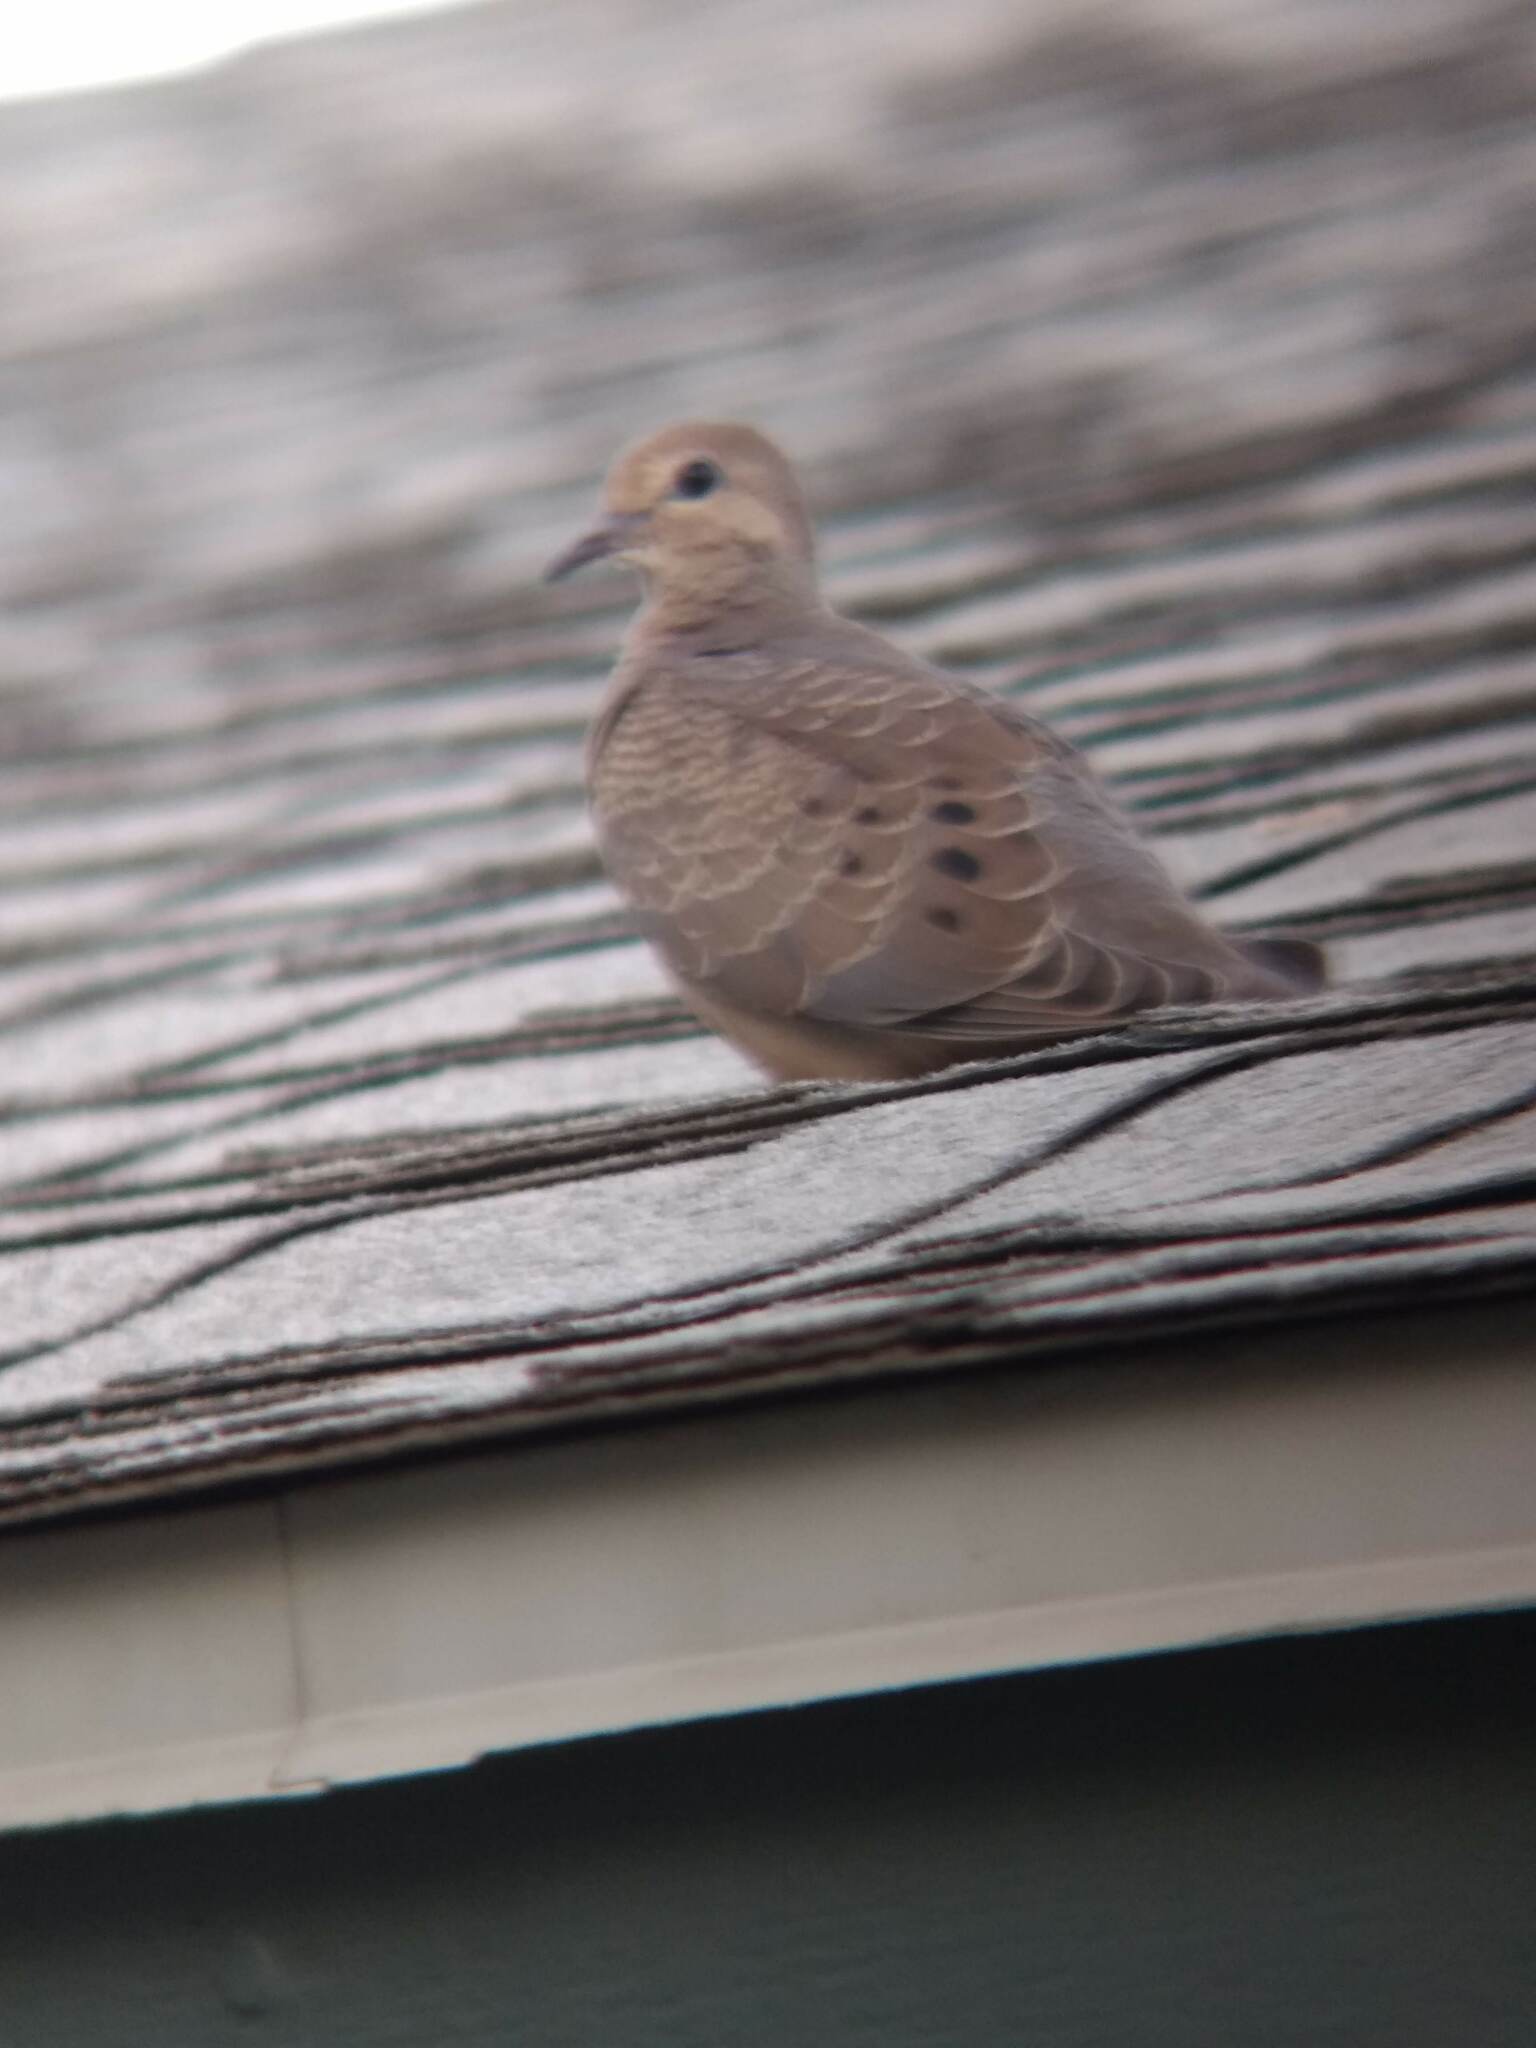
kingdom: Animalia
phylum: Chordata
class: Aves
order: Columbiformes
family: Columbidae
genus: Zenaida
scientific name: Zenaida macroura
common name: Mourning dove
